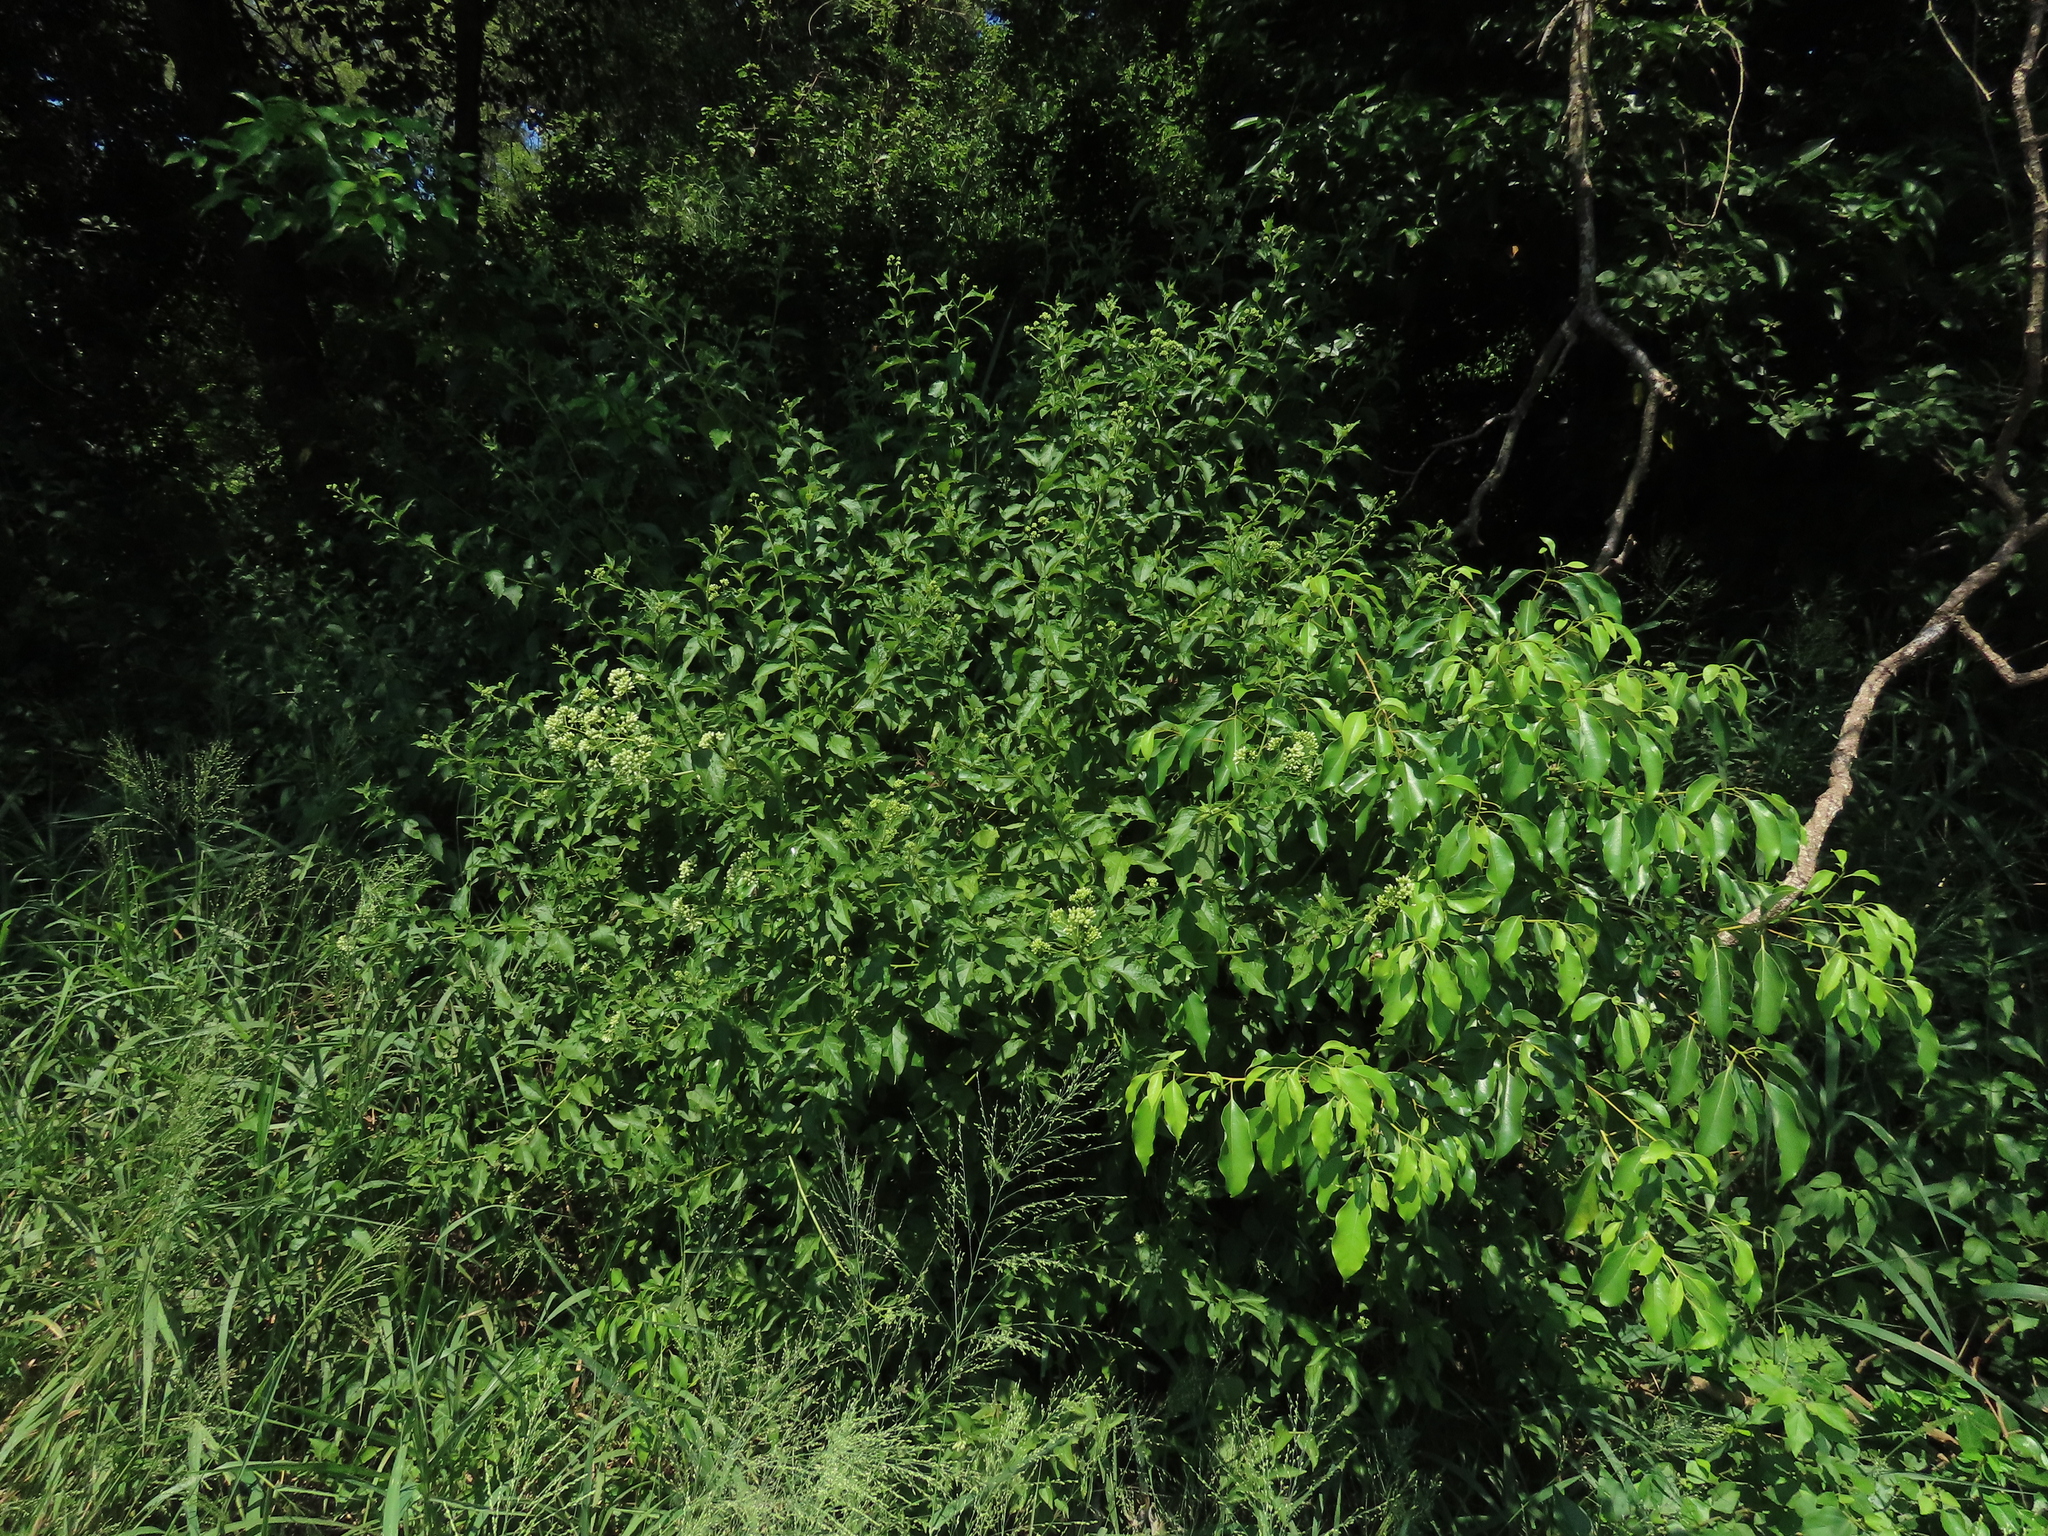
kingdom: Plantae
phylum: Tracheophyta
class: Magnoliopsida
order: Asterales
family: Asteraceae
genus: Microglossa
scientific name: Microglossa pyrifolia
